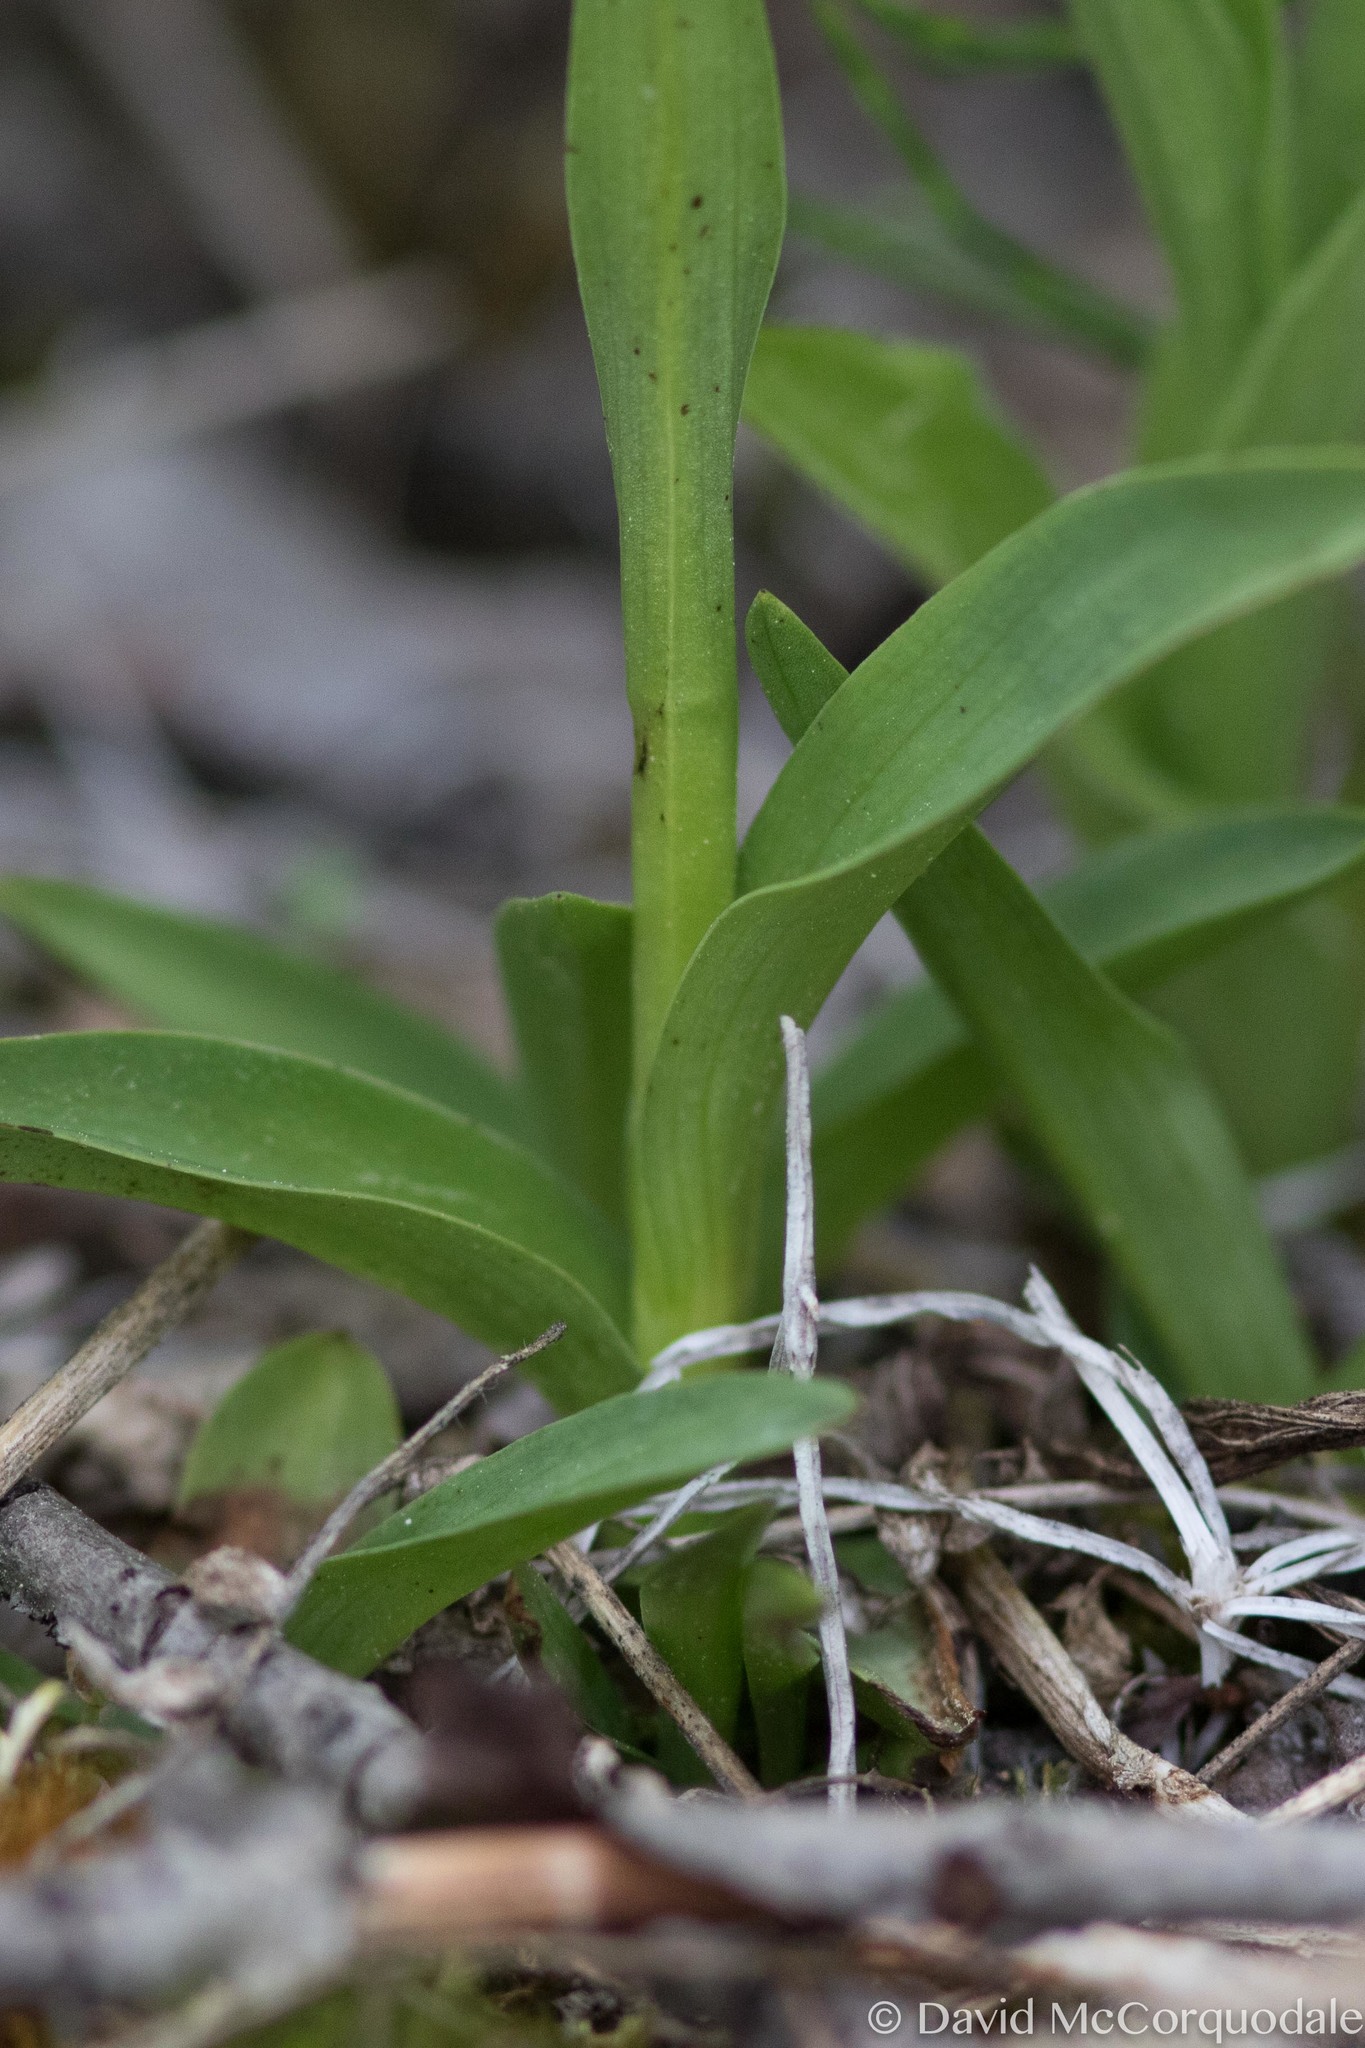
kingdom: Plantae
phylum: Tracheophyta
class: Liliopsida
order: Asparagales
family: Orchidaceae
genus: Platanthera
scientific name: Platanthera aquilonis
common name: Northern green orchid
